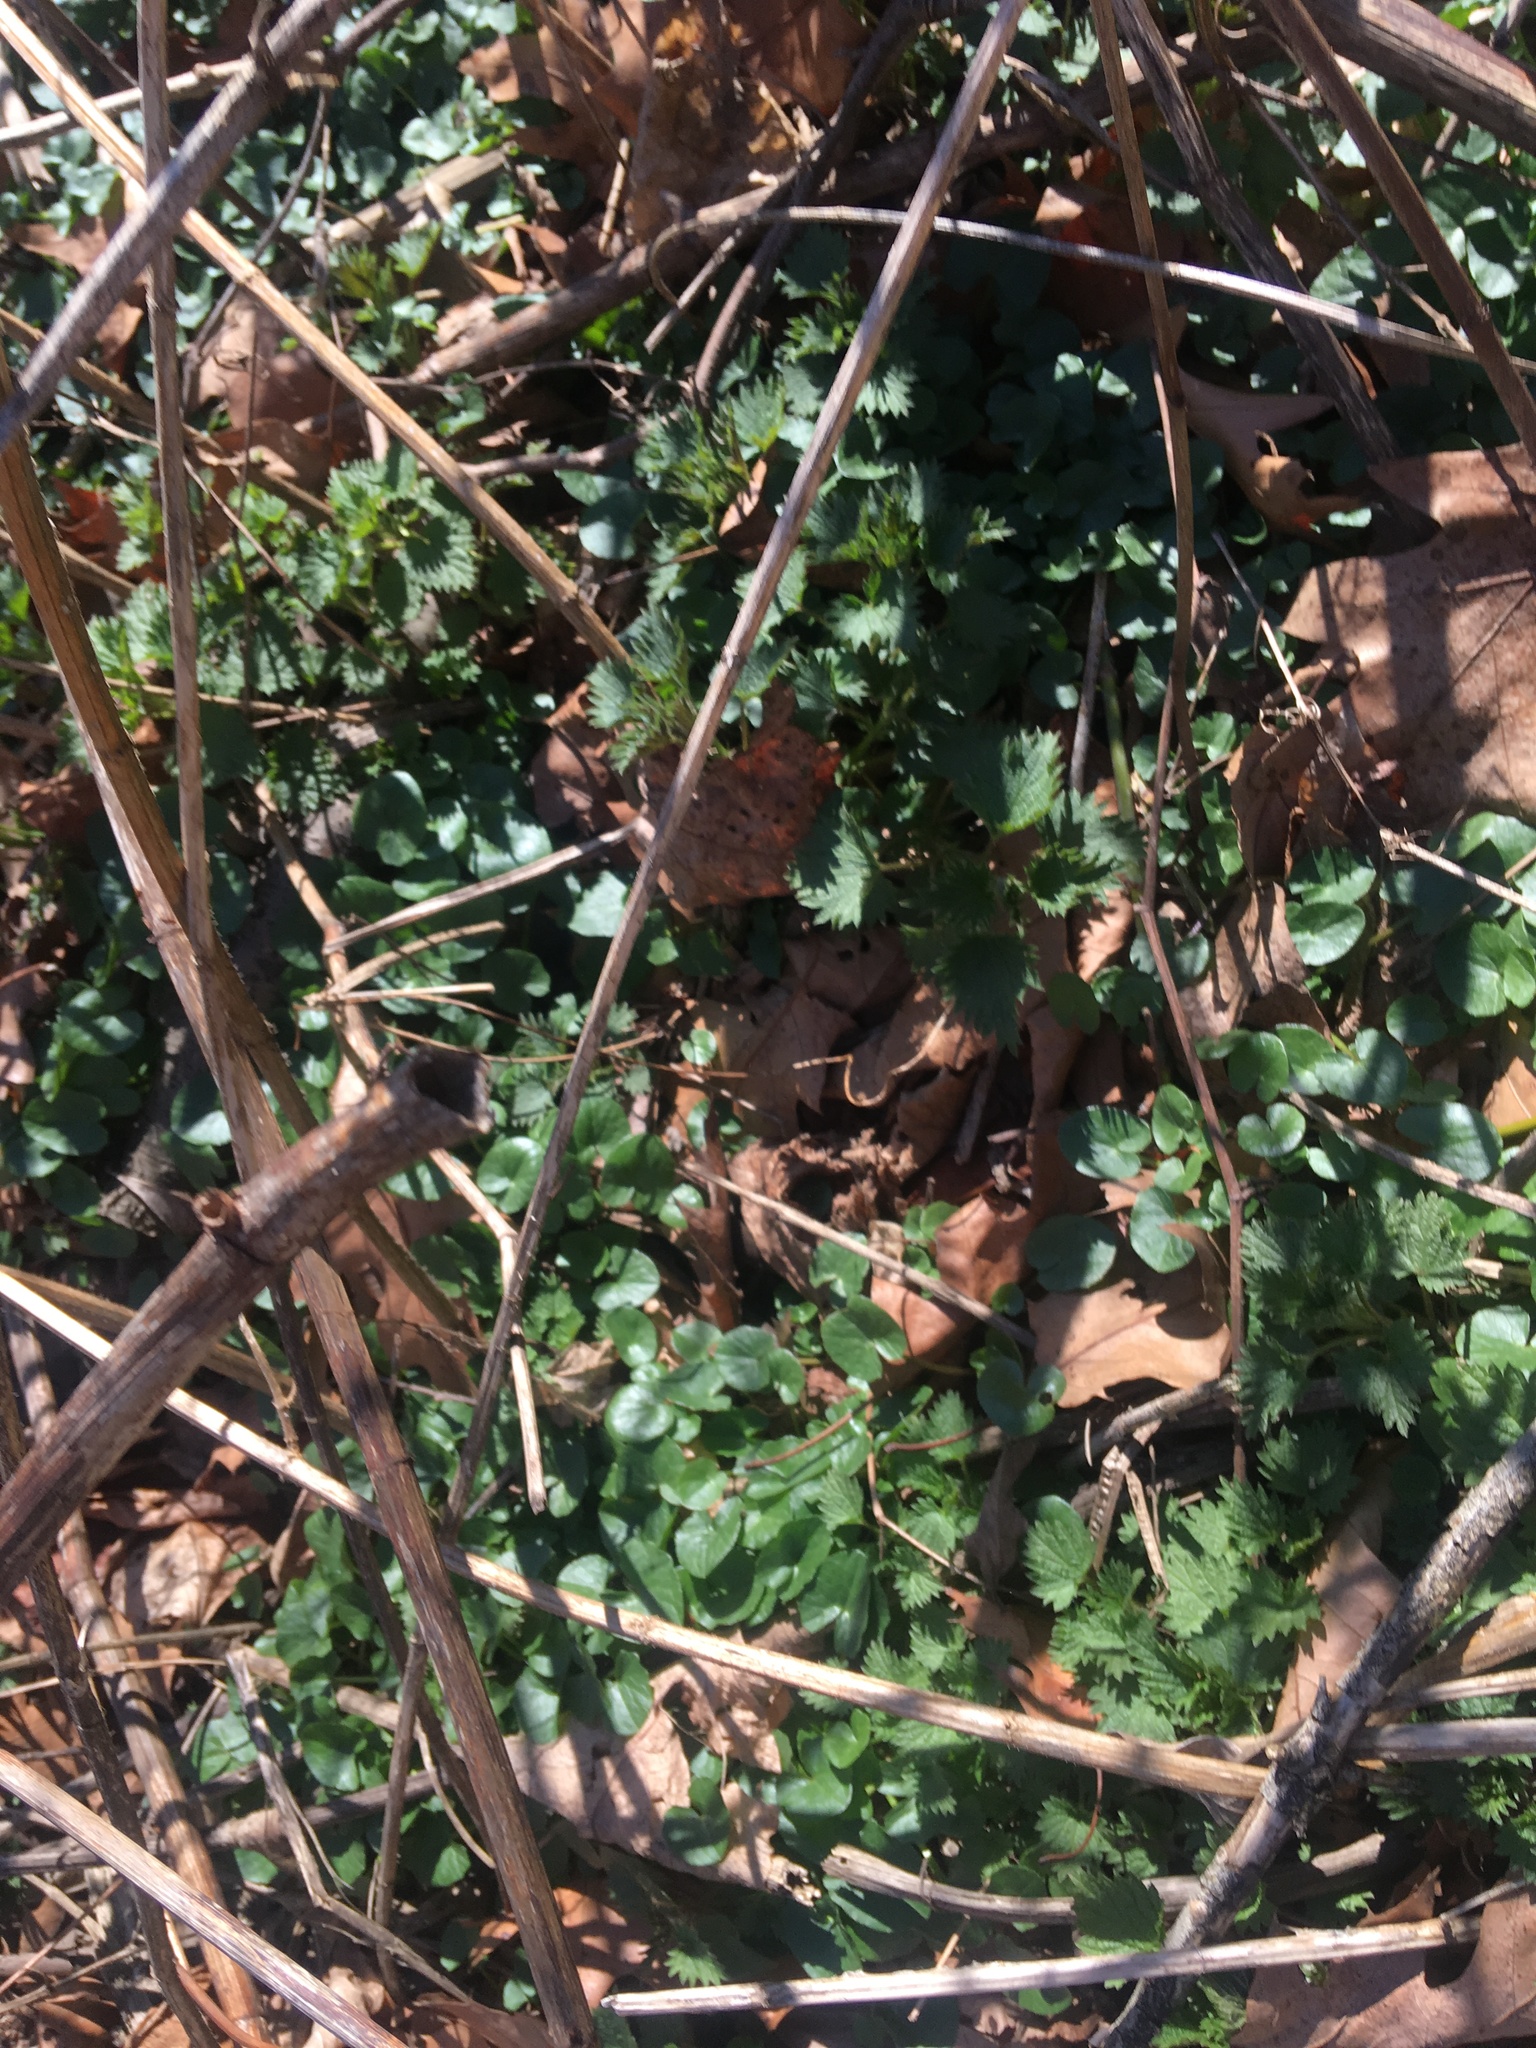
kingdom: Plantae
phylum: Tracheophyta
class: Magnoliopsida
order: Ranunculales
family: Ranunculaceae
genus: Ficaria
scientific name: Ficaria verna
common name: Lesser celandine
